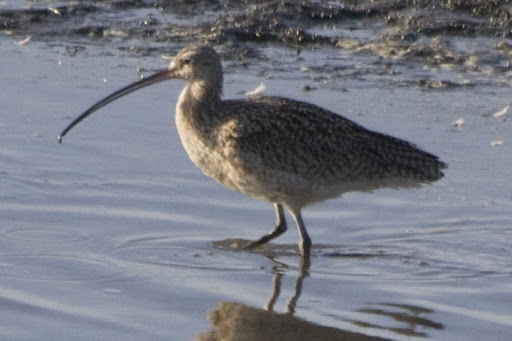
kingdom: Animalia
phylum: Chordata
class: Aves
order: Charadriiformes
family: Scolopacidae
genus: Numenius
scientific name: Numenius americanus
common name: Long-billed curlew
